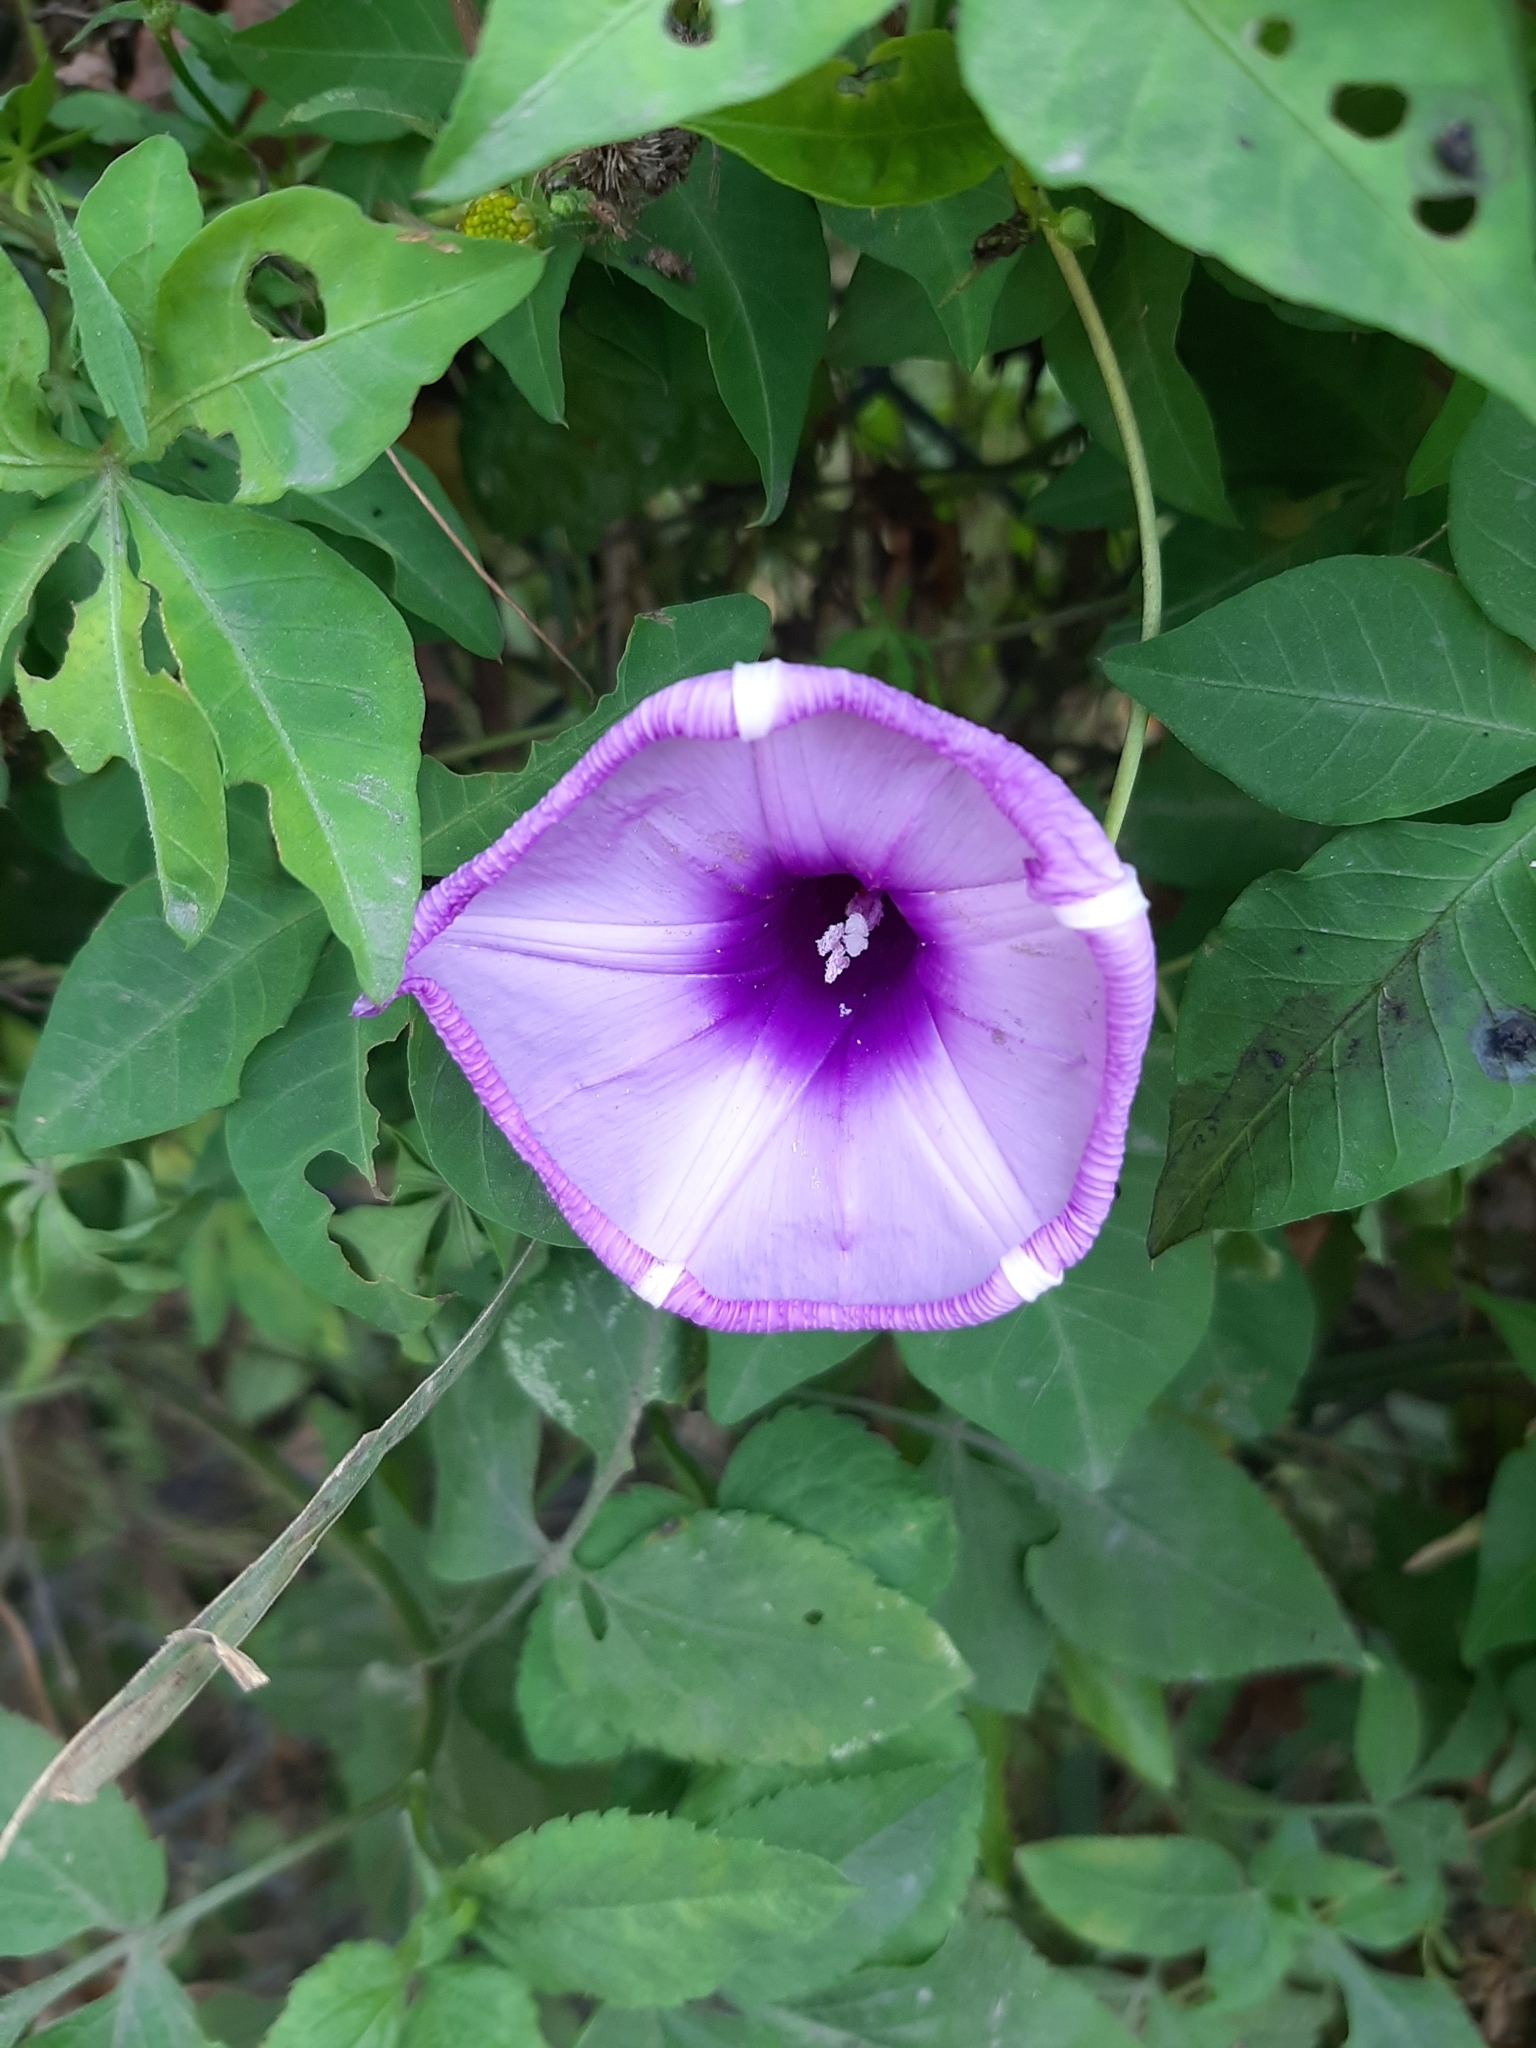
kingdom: Plantae
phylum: Tracheophyta
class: Magnoliopsida
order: Solanales
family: Convolvulaceae
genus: Ipomoea
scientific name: Ipomoea cairica
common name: Mile a minute vine
